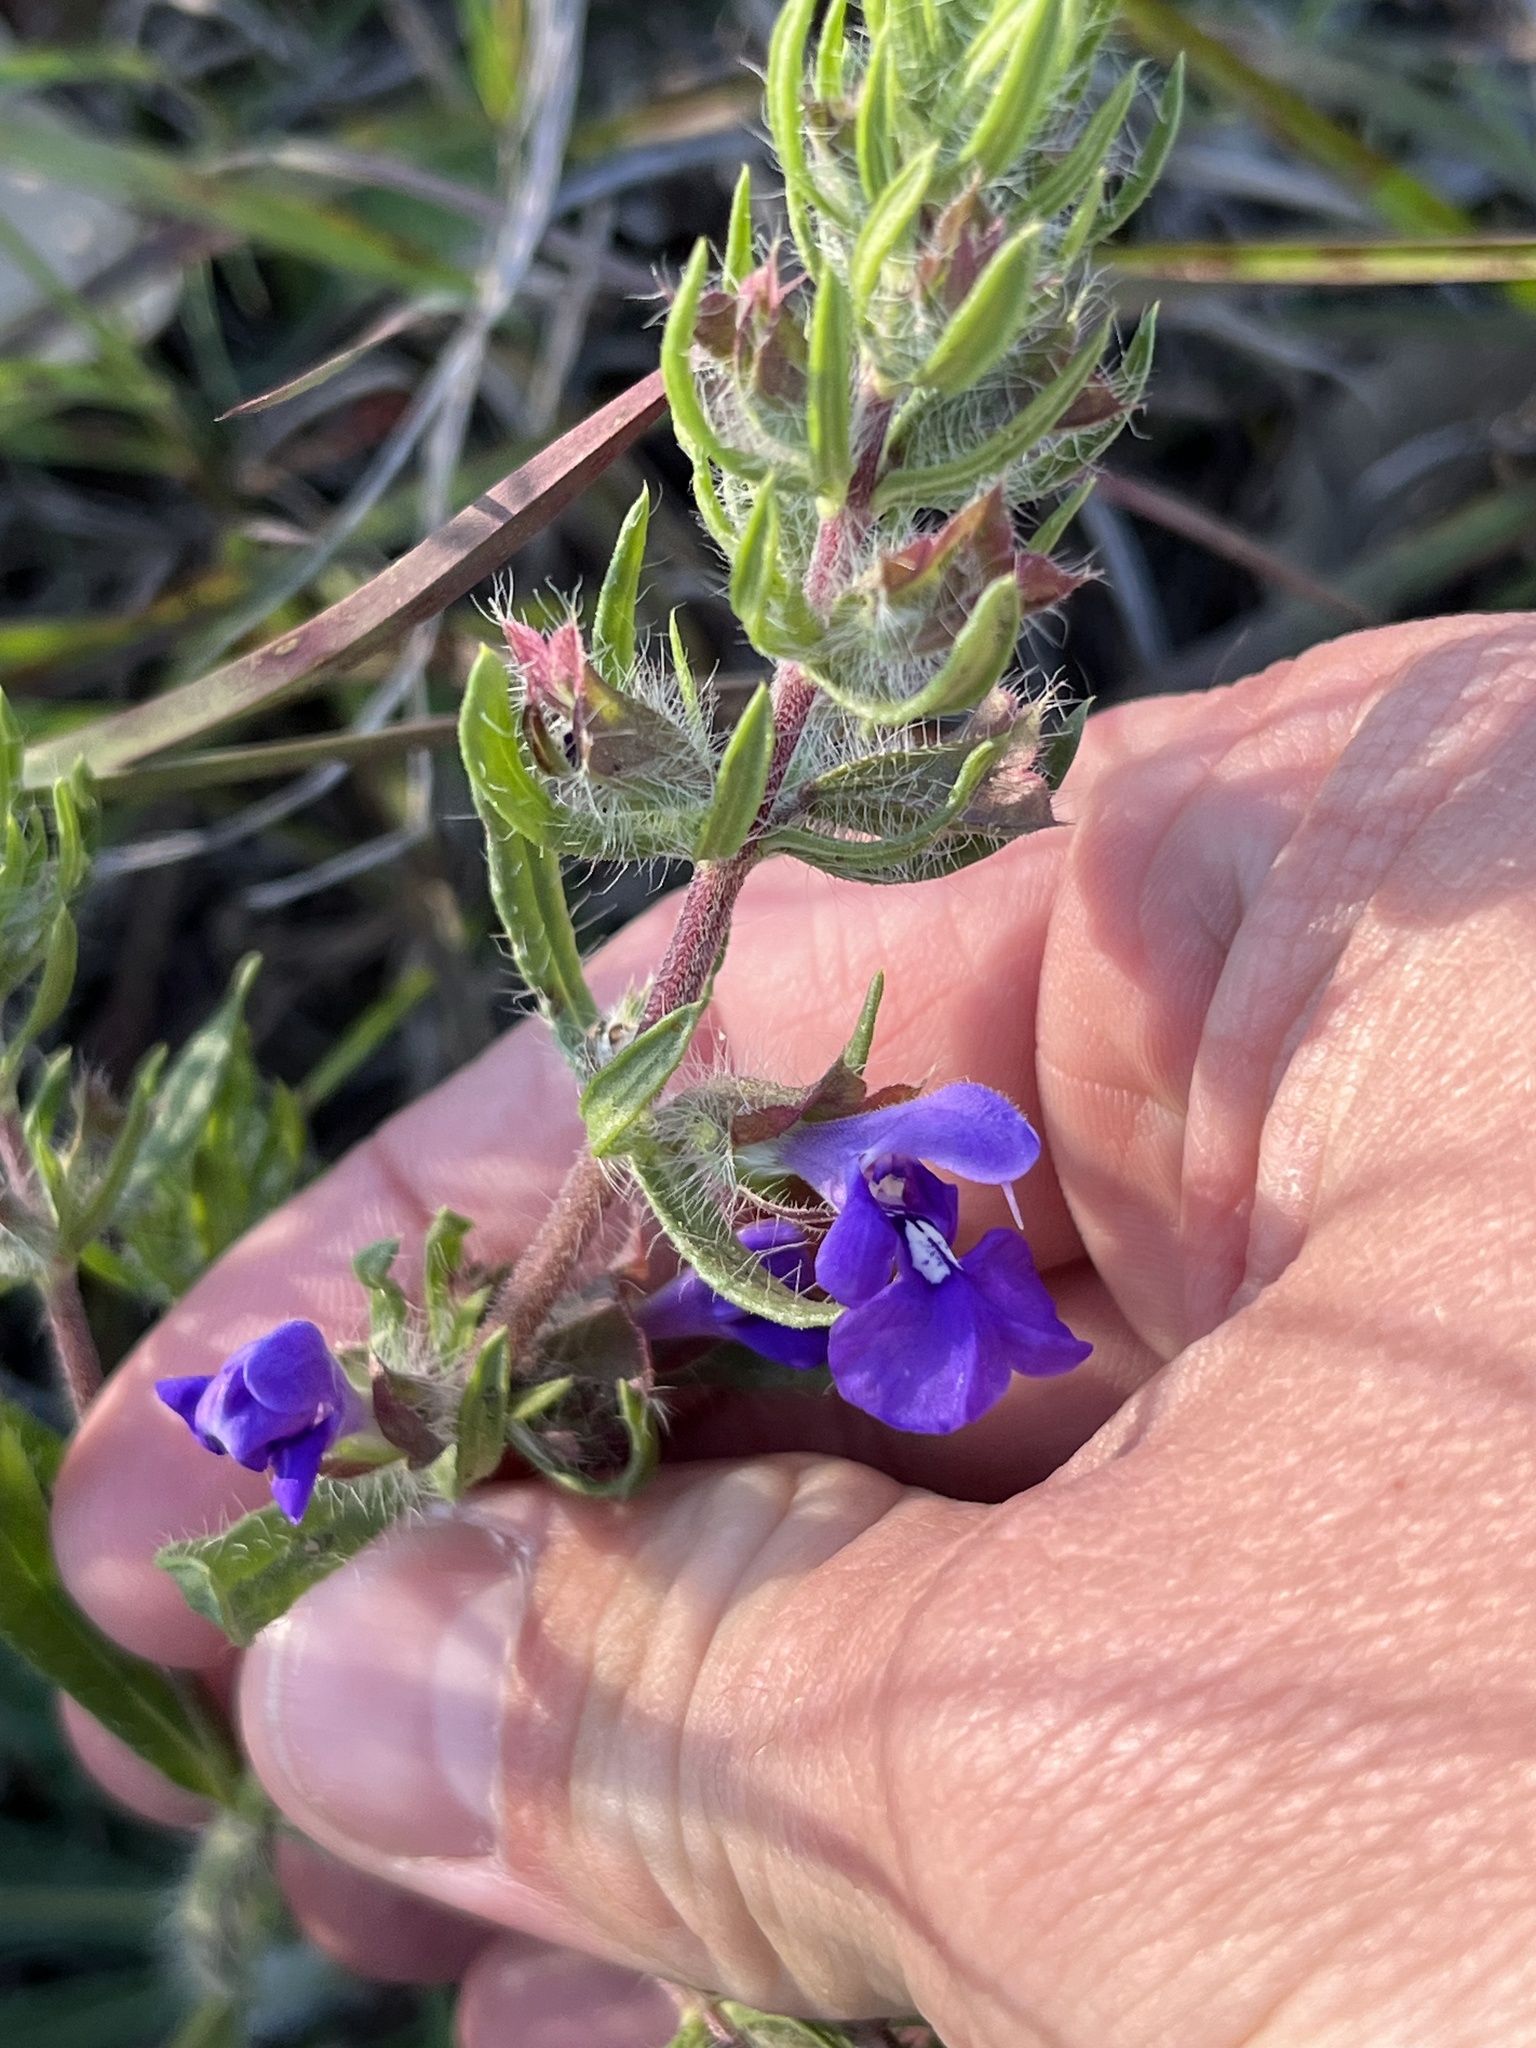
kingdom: Plantae
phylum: Tracheophyta
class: Magnoliopsida
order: Lamiales
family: Lamiaceae
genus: Salvia
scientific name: Salvia texana
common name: Texas sage
